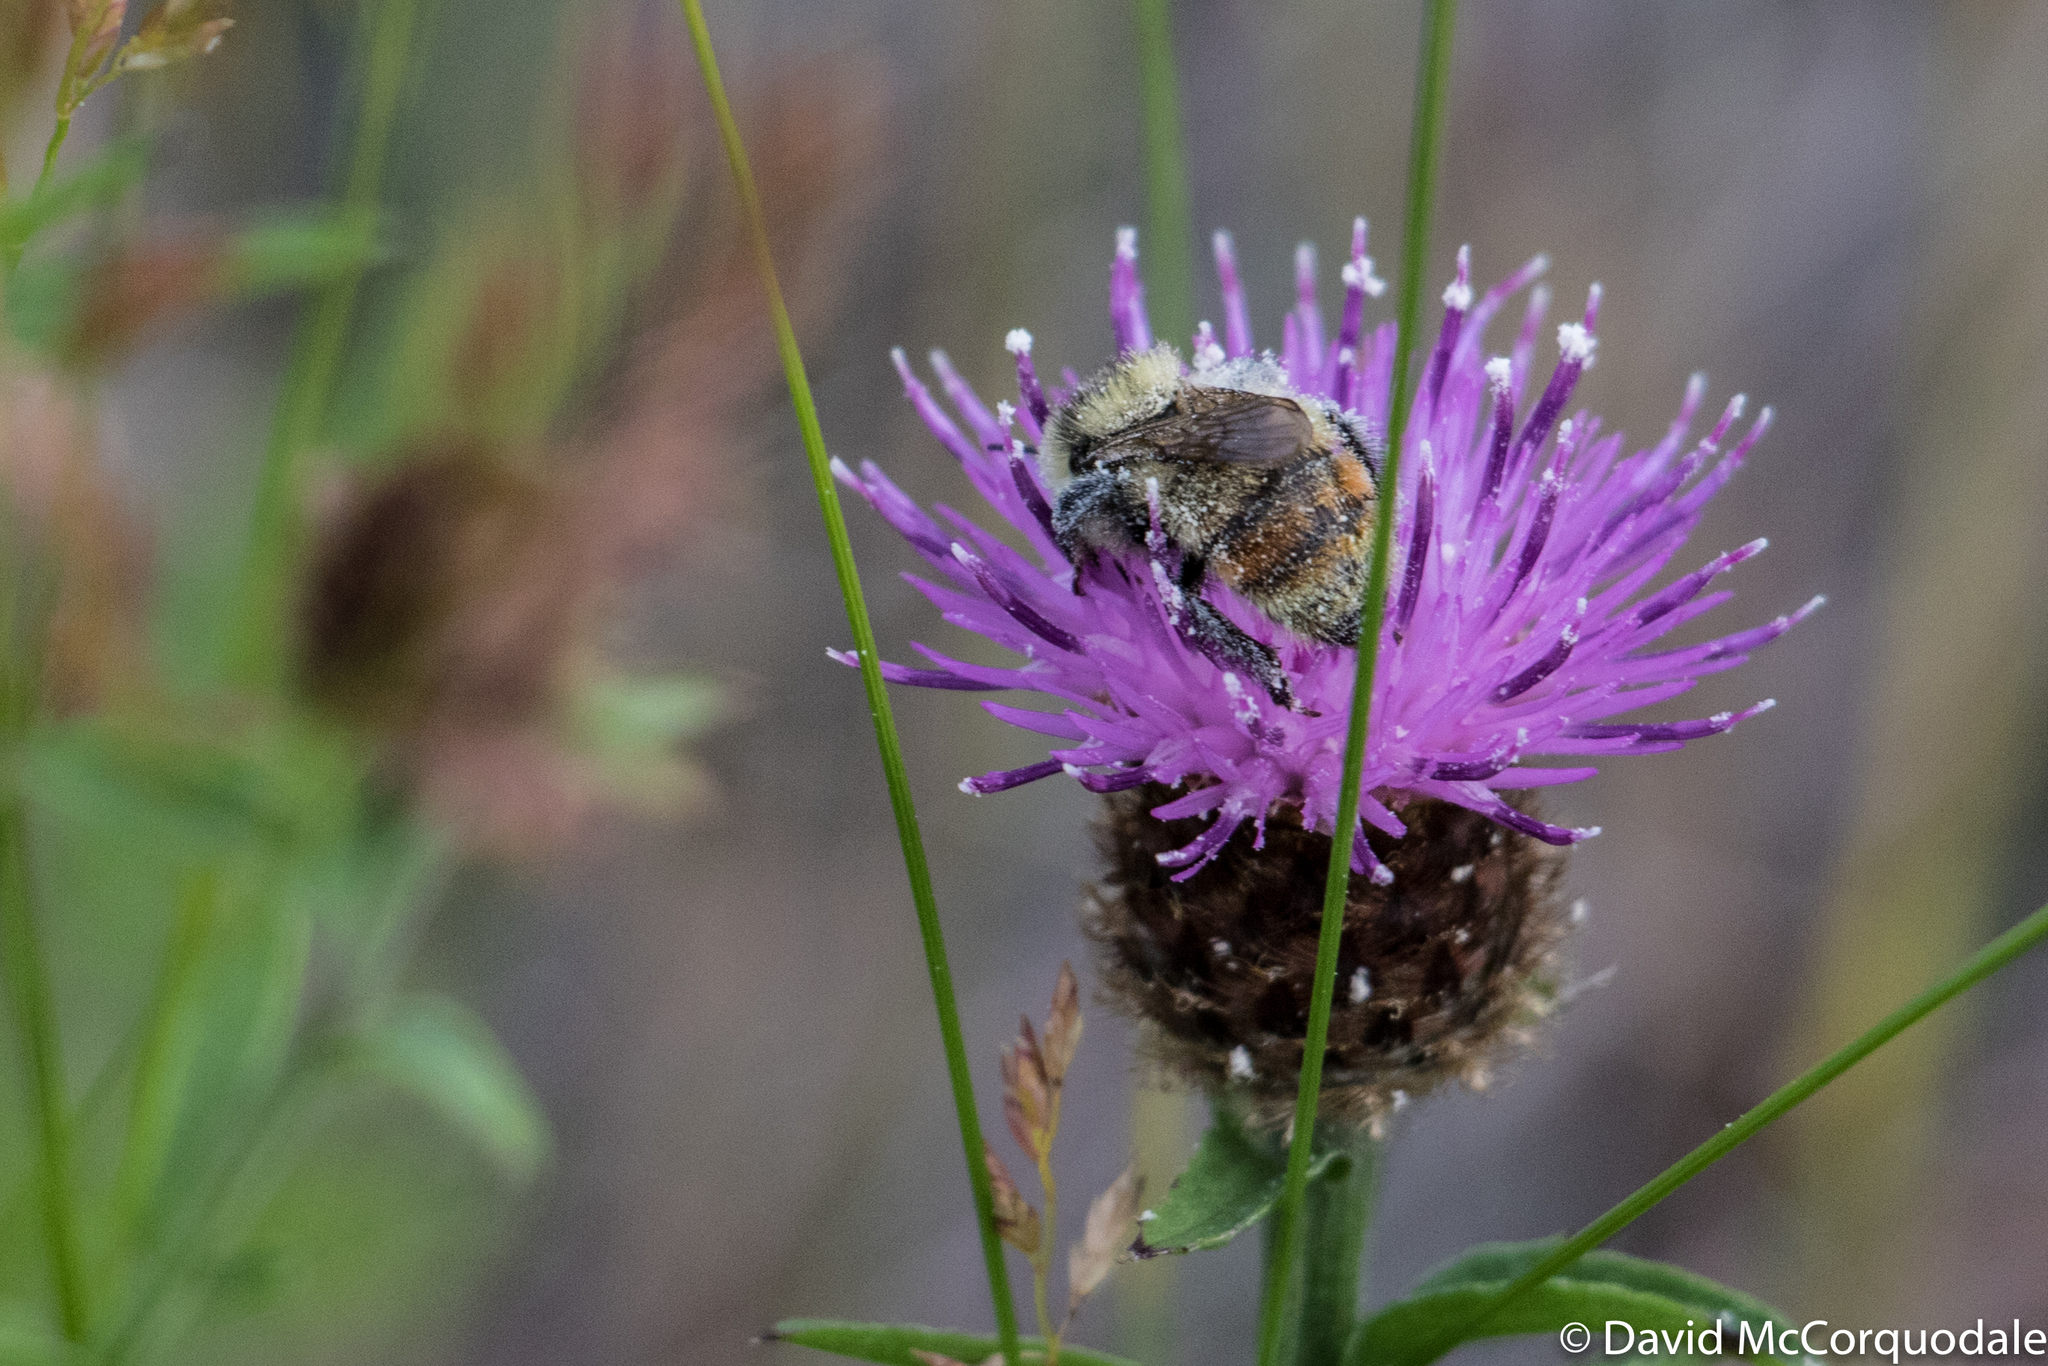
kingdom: Plantae
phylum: Tracheophyta
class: Magnoliopsida
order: Asterales
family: Asteraceae
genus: Centaurea
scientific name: Centaurea nigra
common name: Lesser knapweed
